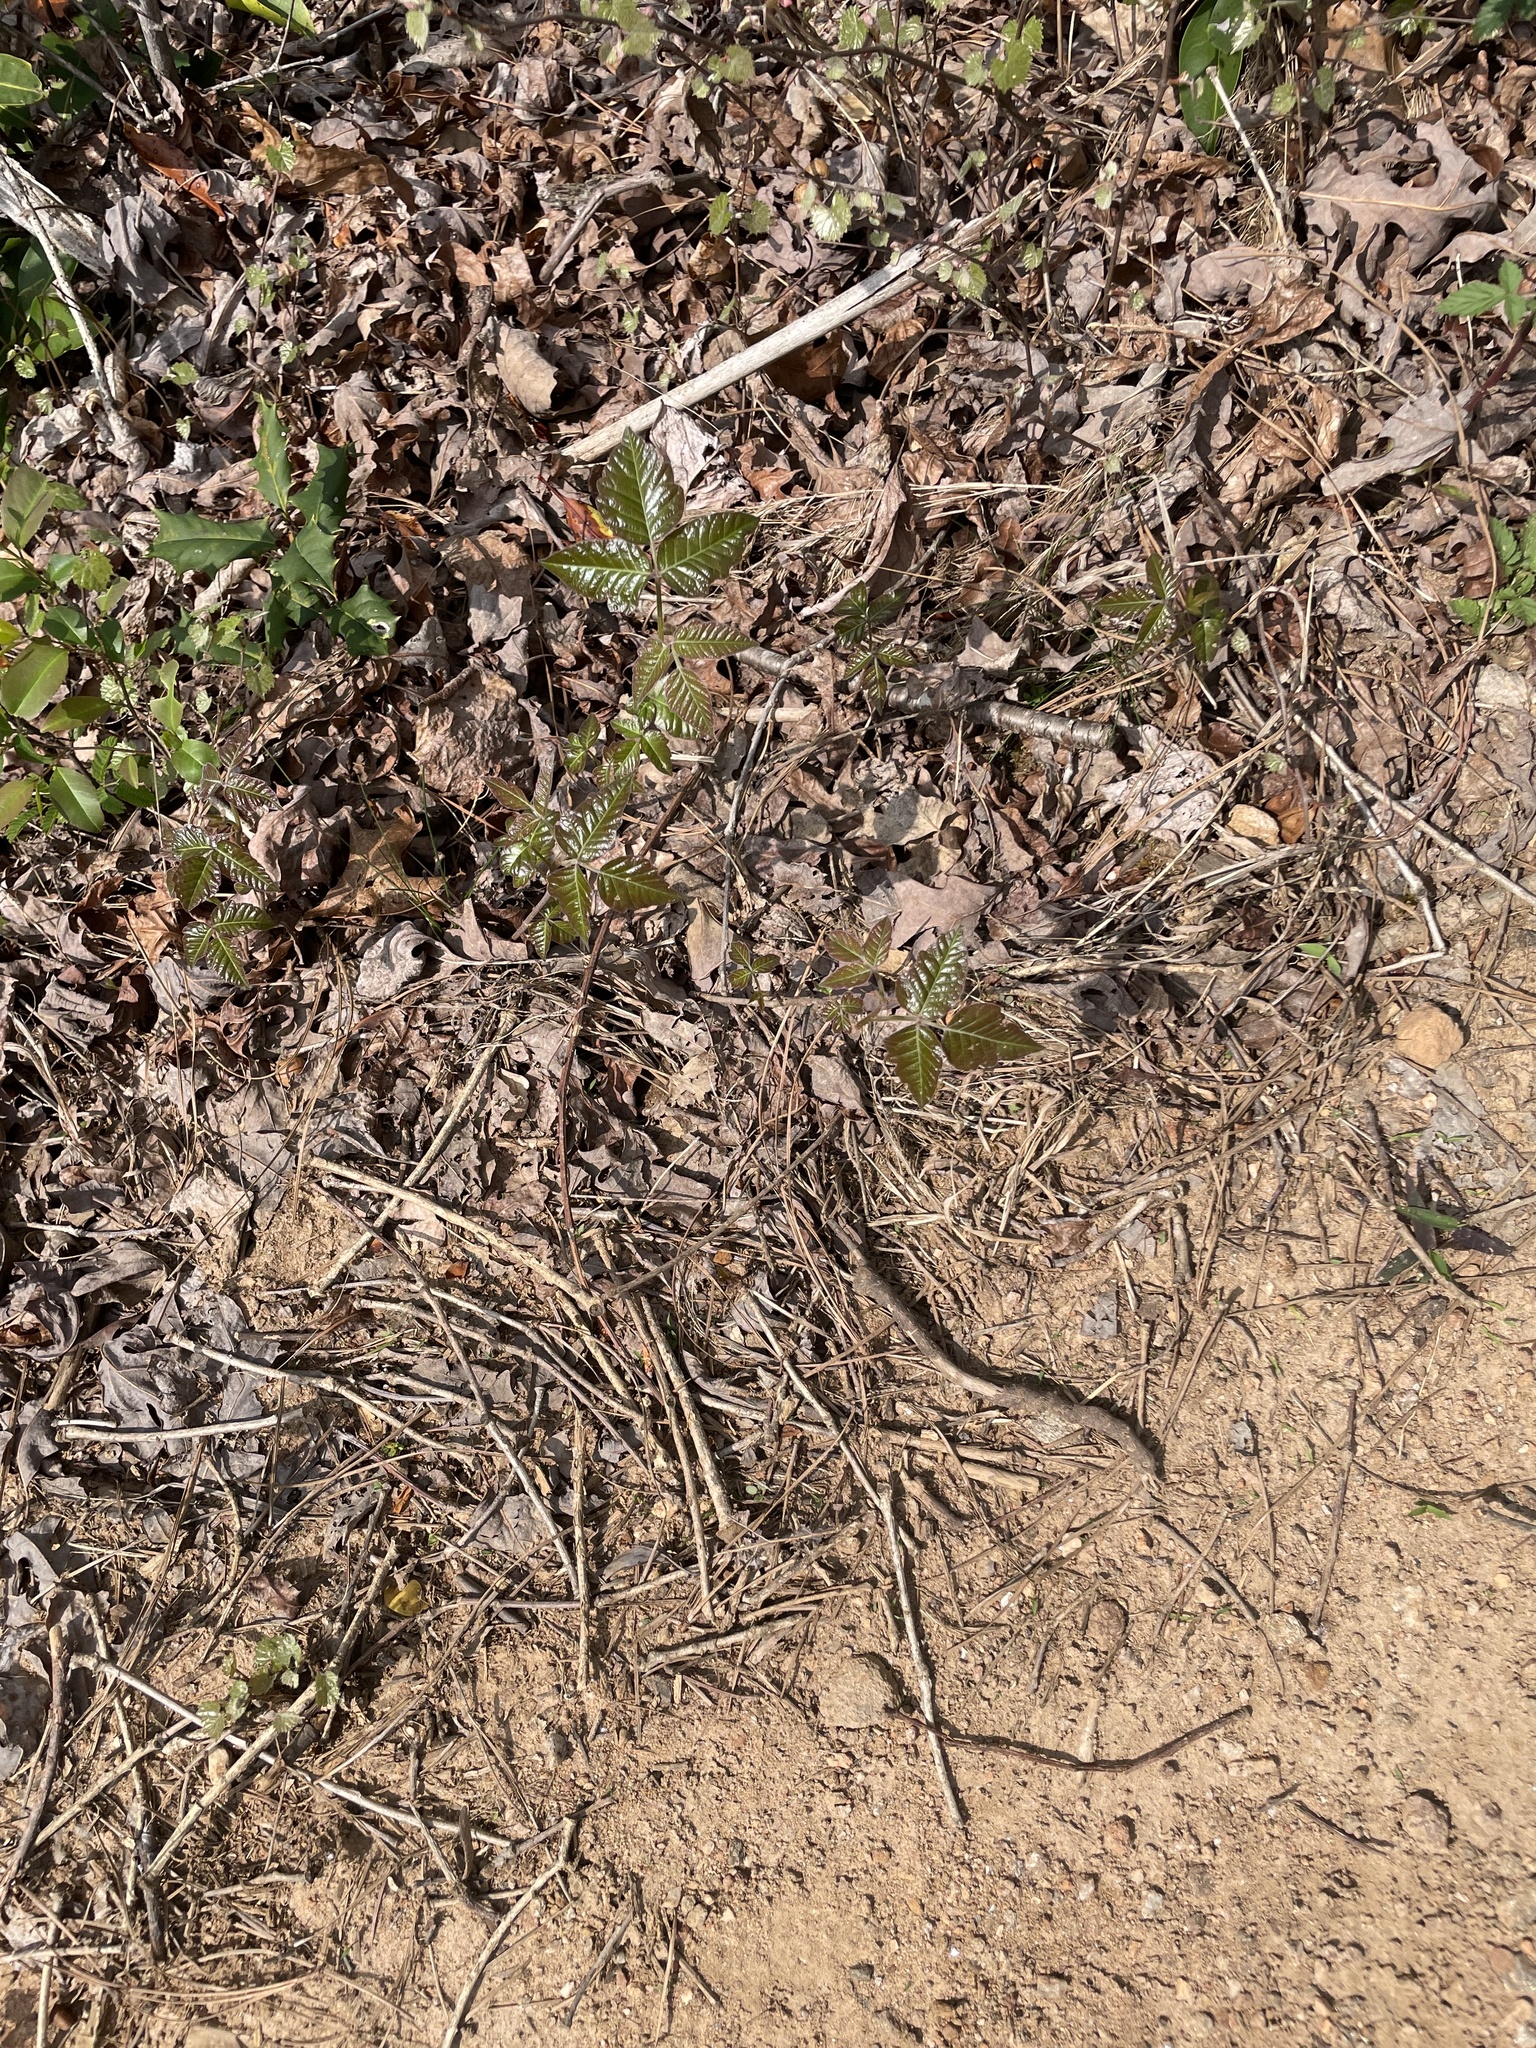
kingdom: Plantae
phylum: Tracheophyta
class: Magnoliopsida
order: Sapindales
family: Anacardiaceae
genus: Toxicodendron
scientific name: Toxicodendron radicans
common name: Poison ivy
